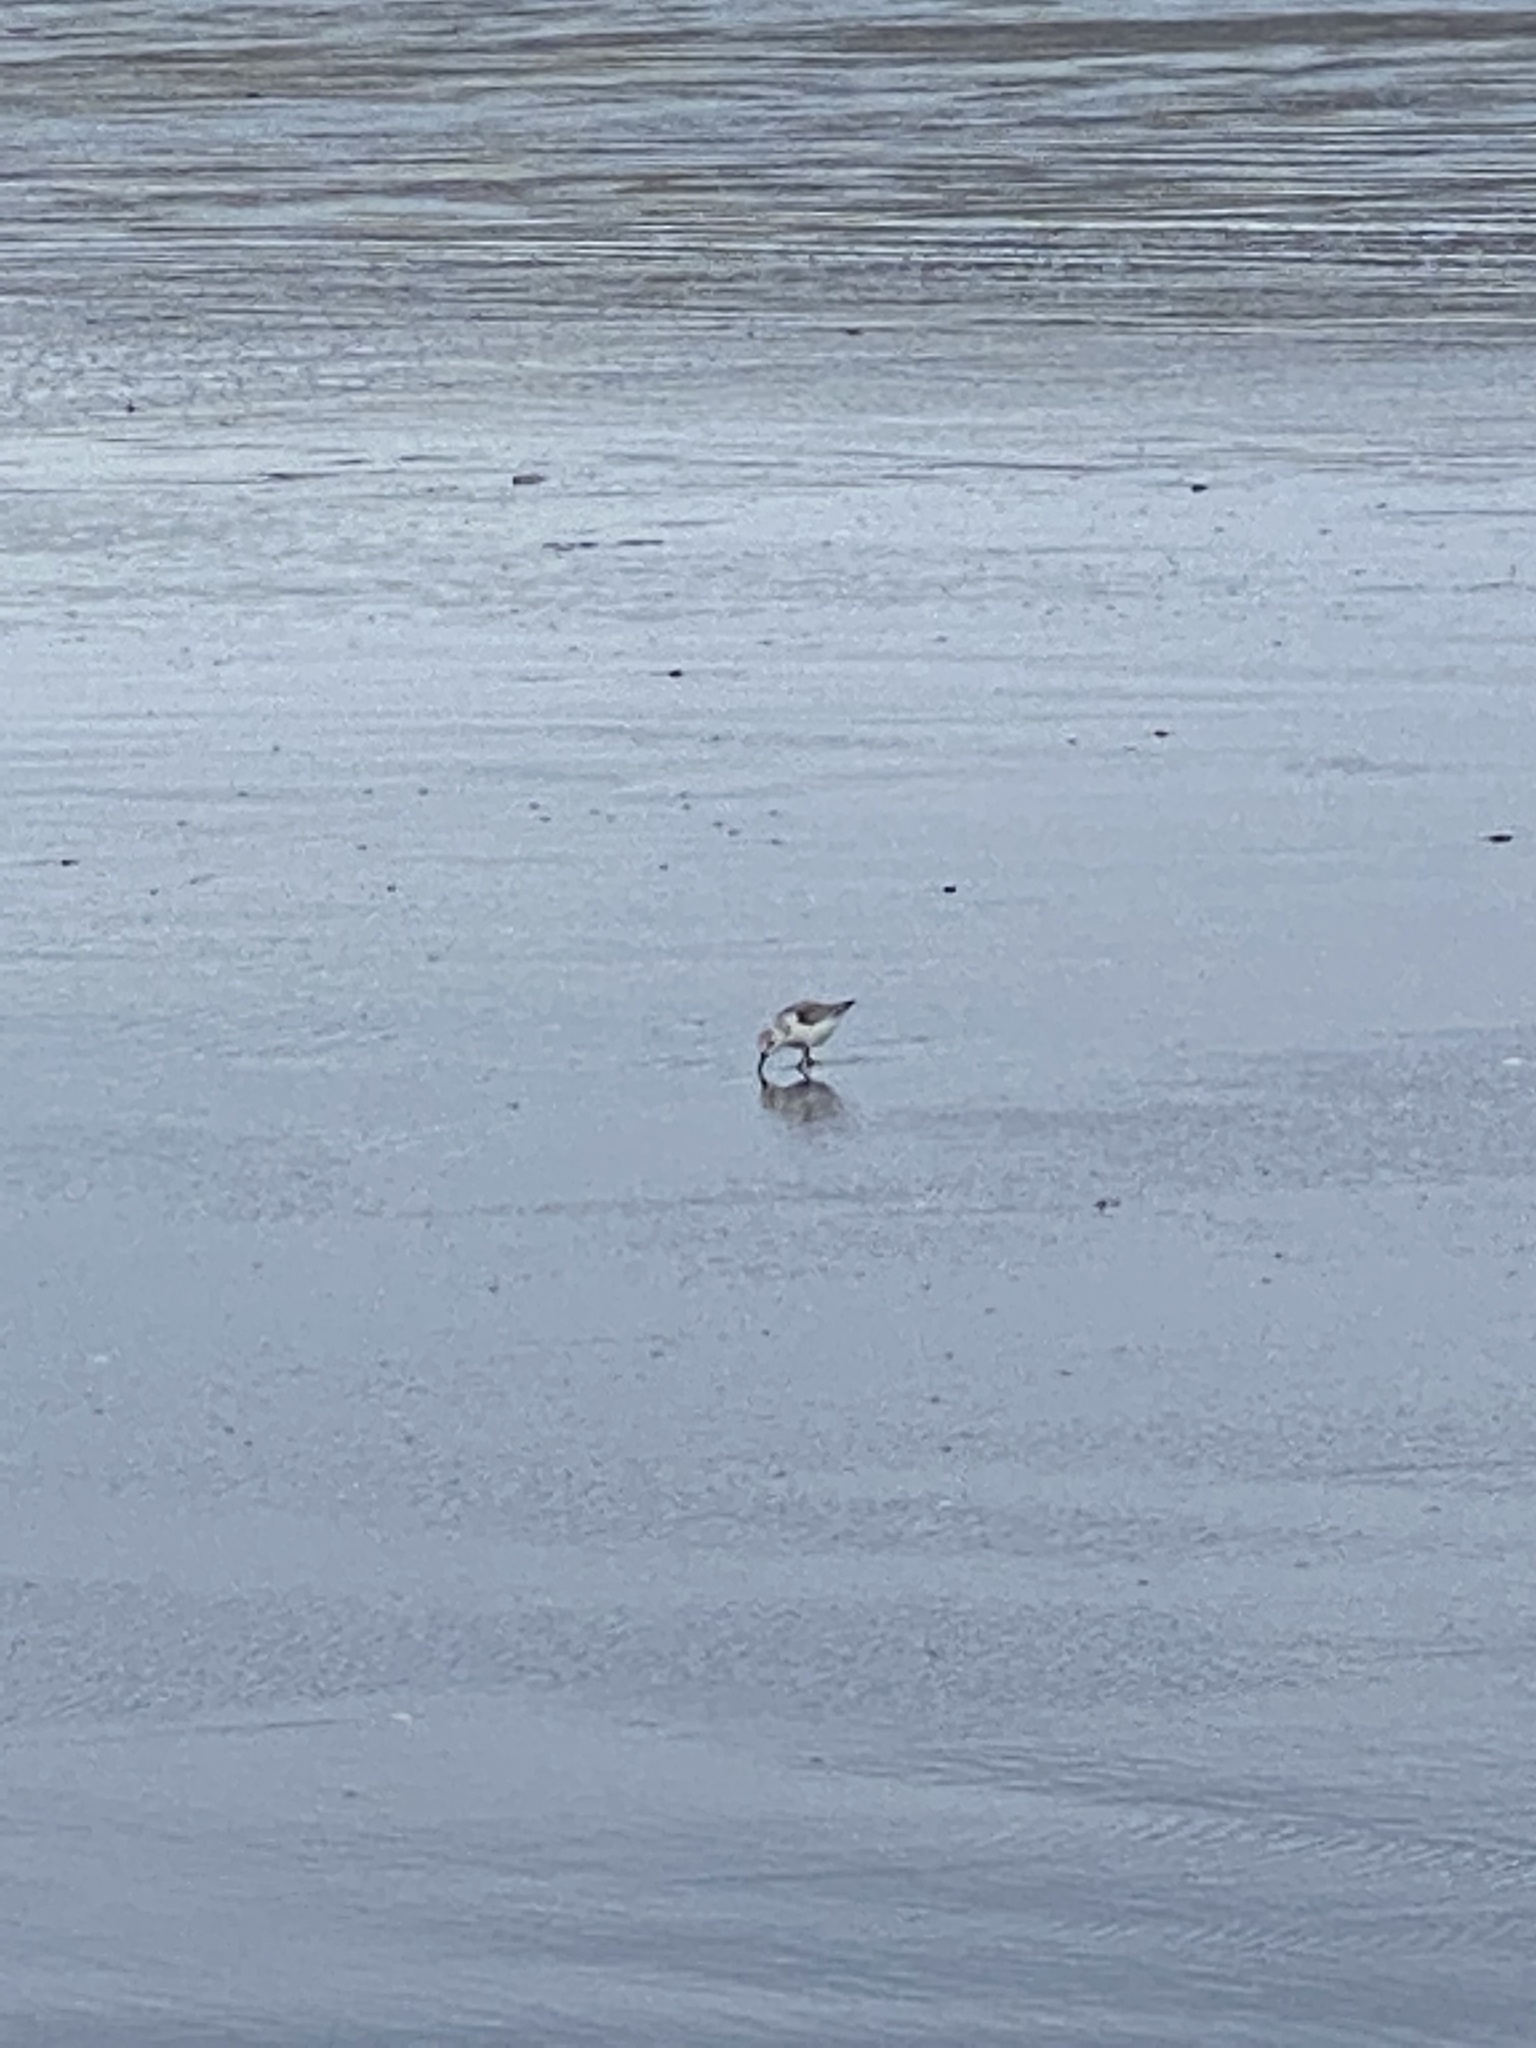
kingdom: Animalia
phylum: Chordata
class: Aves
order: Charadriiformes
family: Scolopacidae
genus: Calidris
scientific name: Calidris alba
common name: Sanderling
